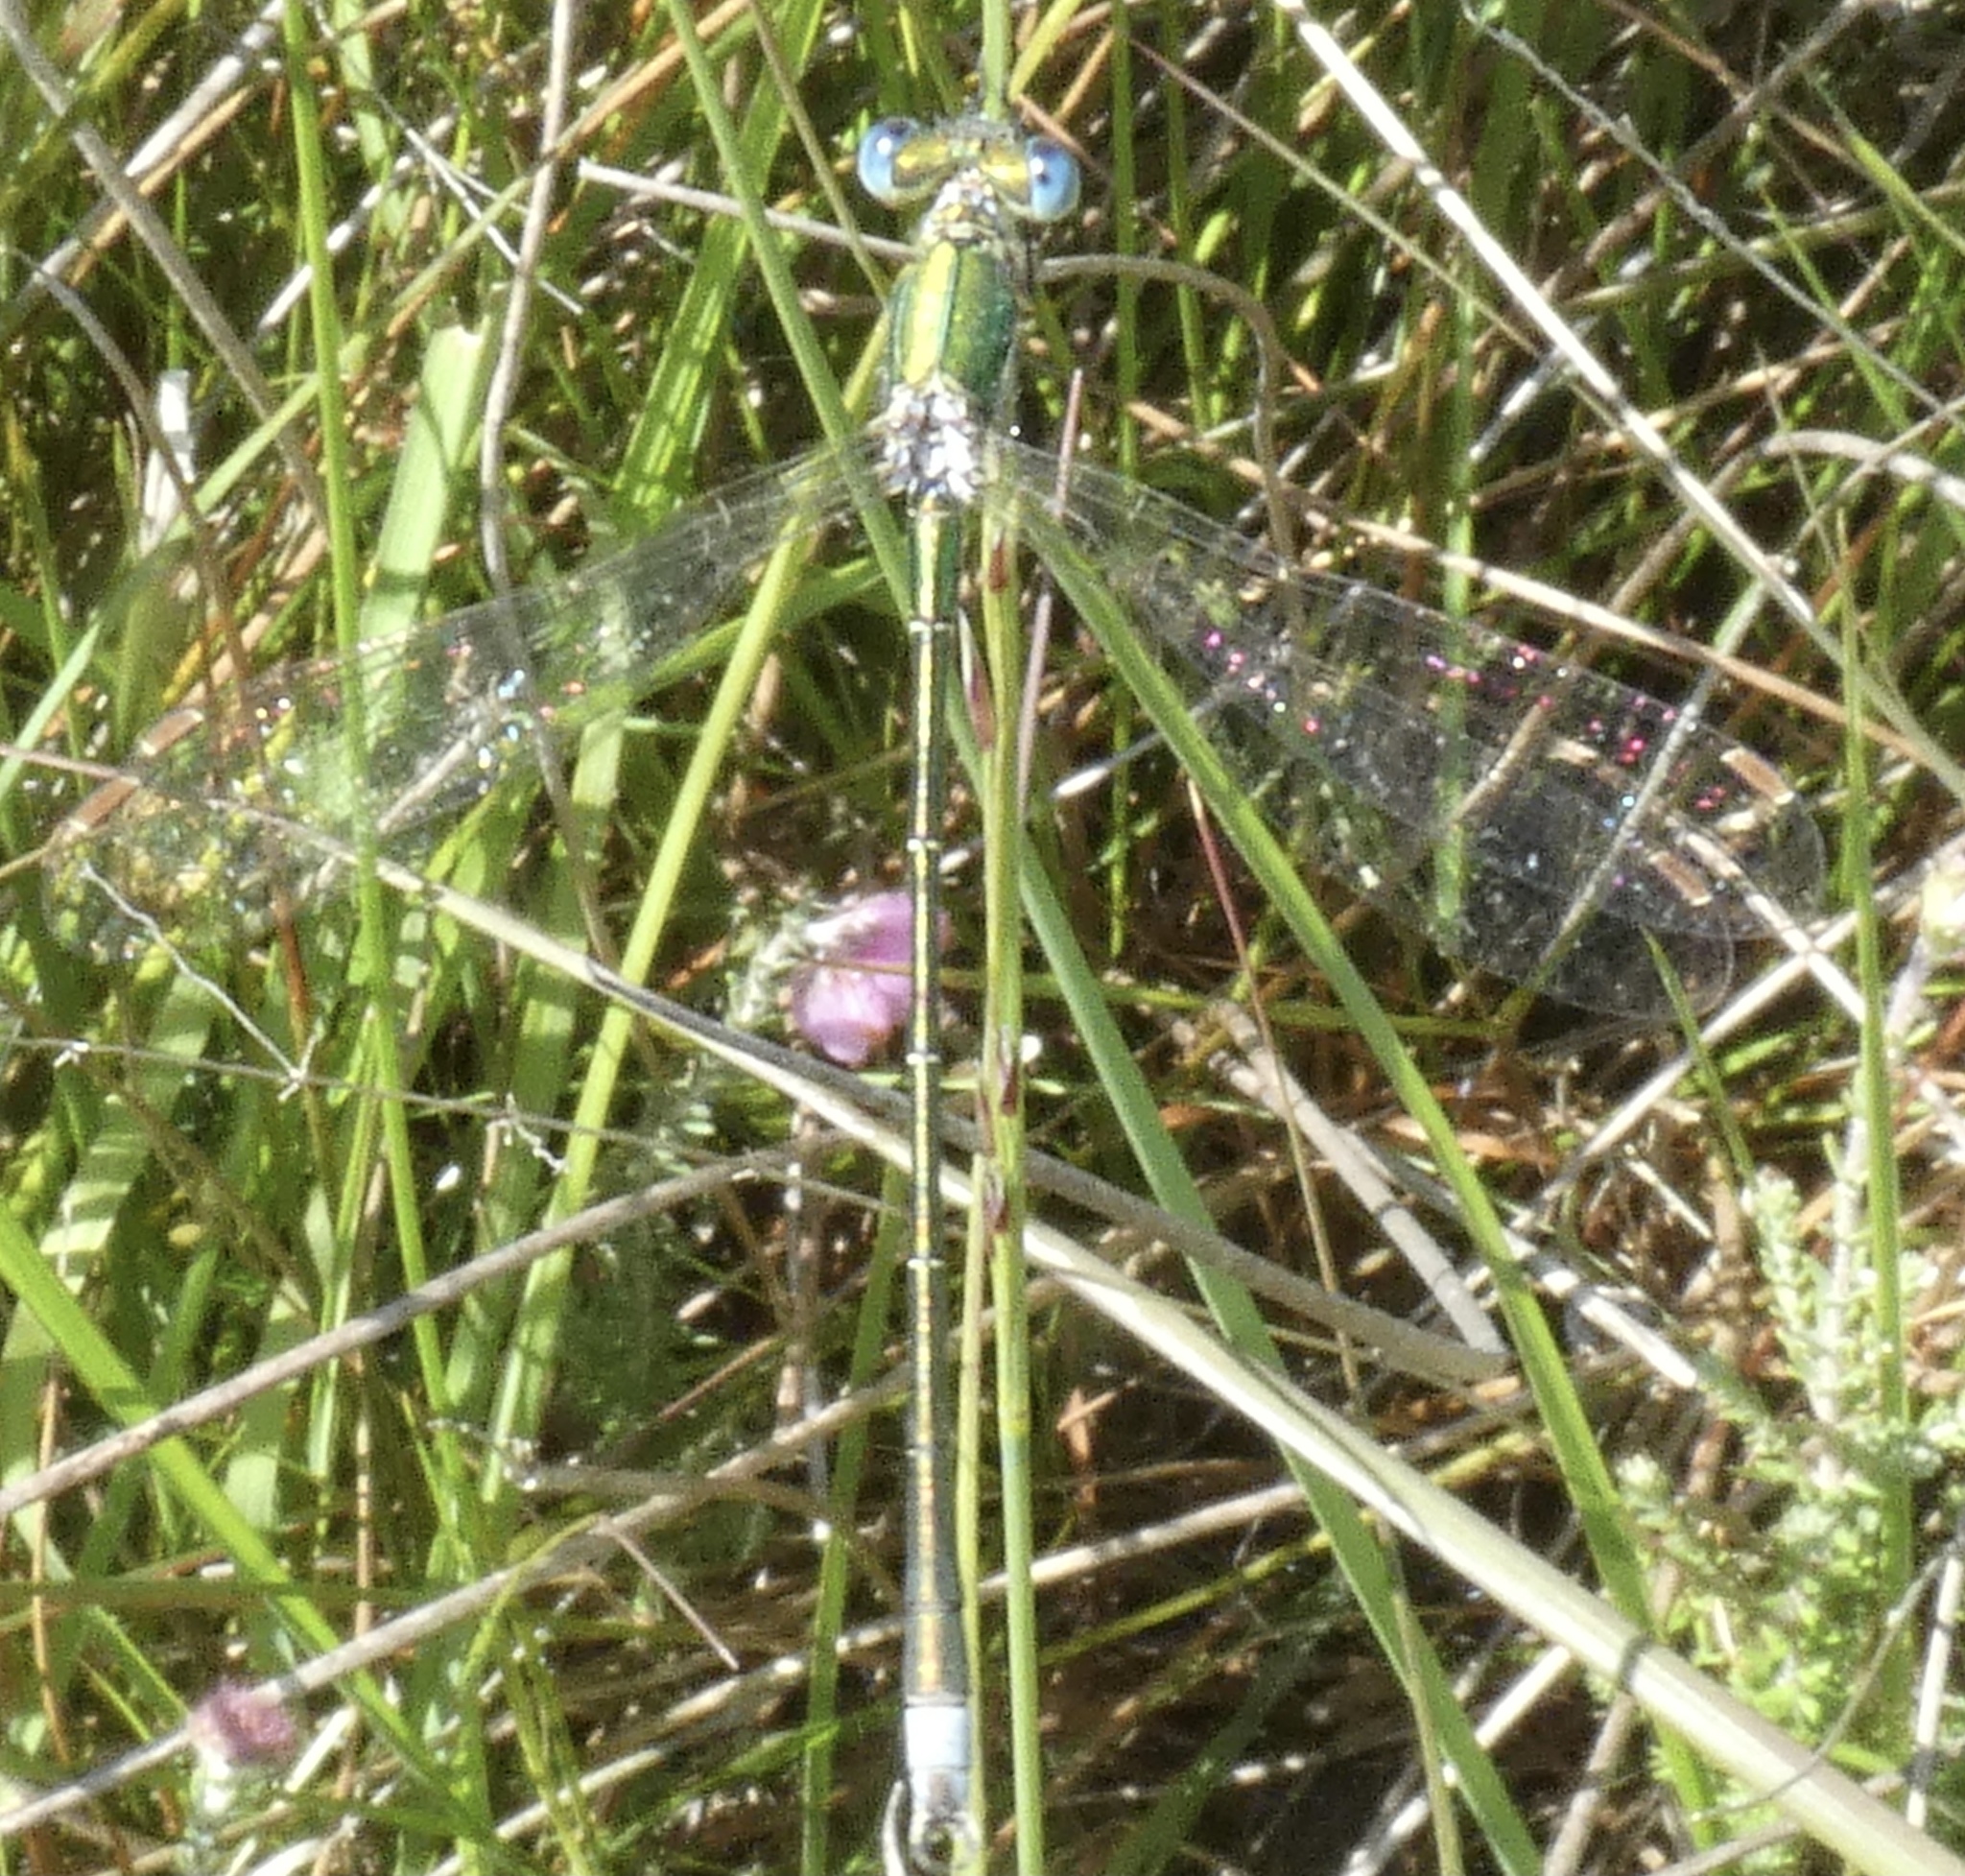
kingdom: Animalia
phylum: Arthropoda
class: Insecta
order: Odonata
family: Lestidae
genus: Lestes
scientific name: Lestes virens
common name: Small emerald spreadwing
